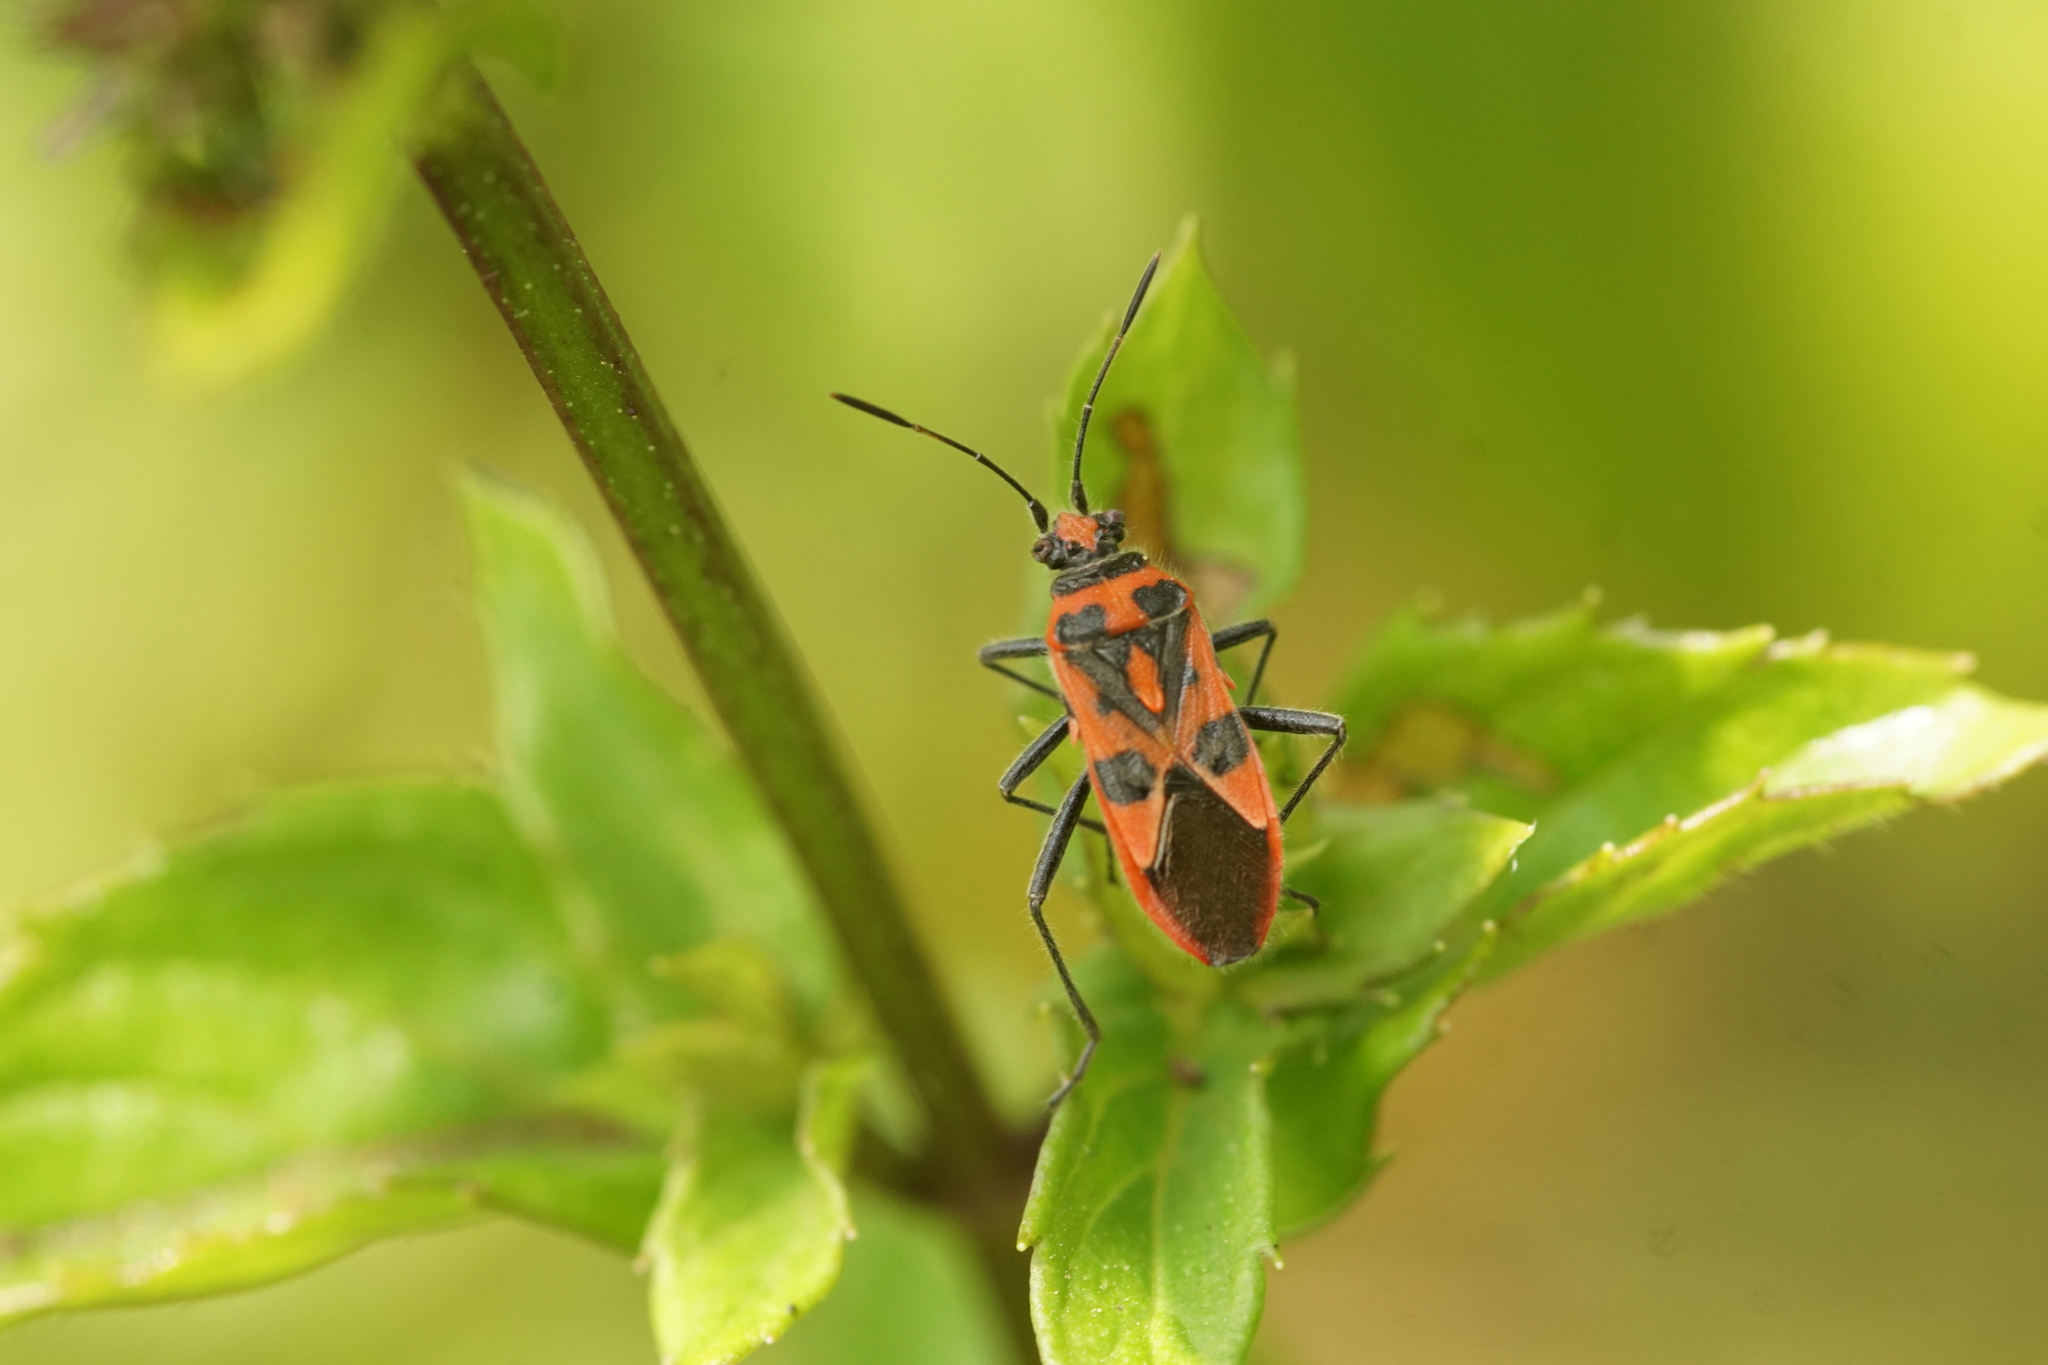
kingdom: Animalia
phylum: Arthropoda
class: Insecta
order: Hemiptera
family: Rhopalidae
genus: Corizus
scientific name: Corizus hyoscyami
